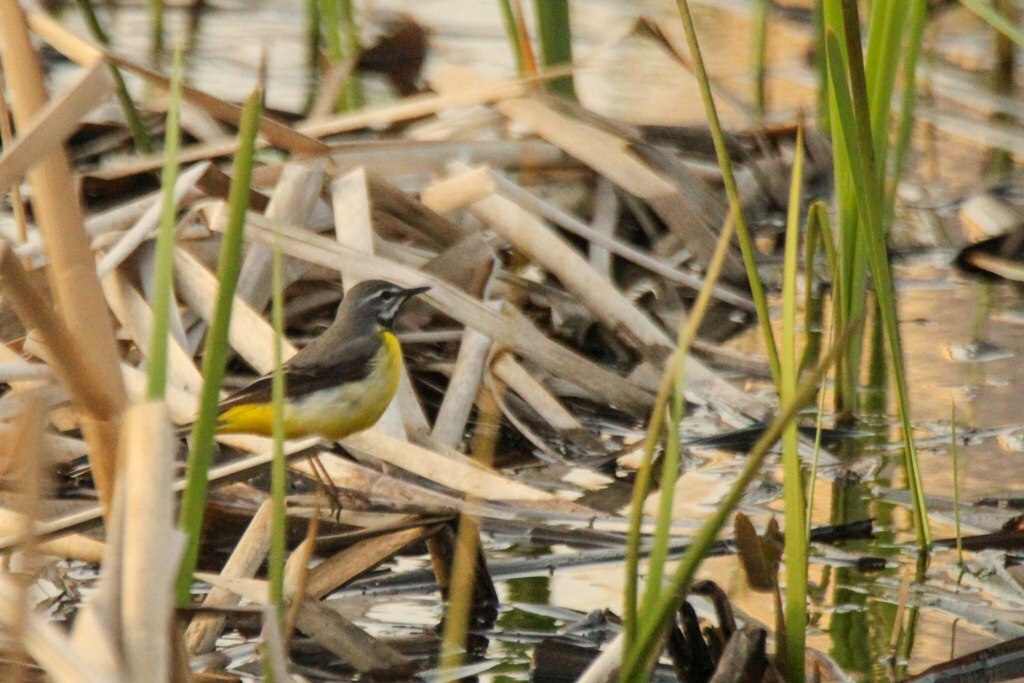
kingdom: Animalia
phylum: Chordata
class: Aves
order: Passeriformes
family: Motacillidae
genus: Motacilla
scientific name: Motacilla cinerea
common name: Grey wagtail
